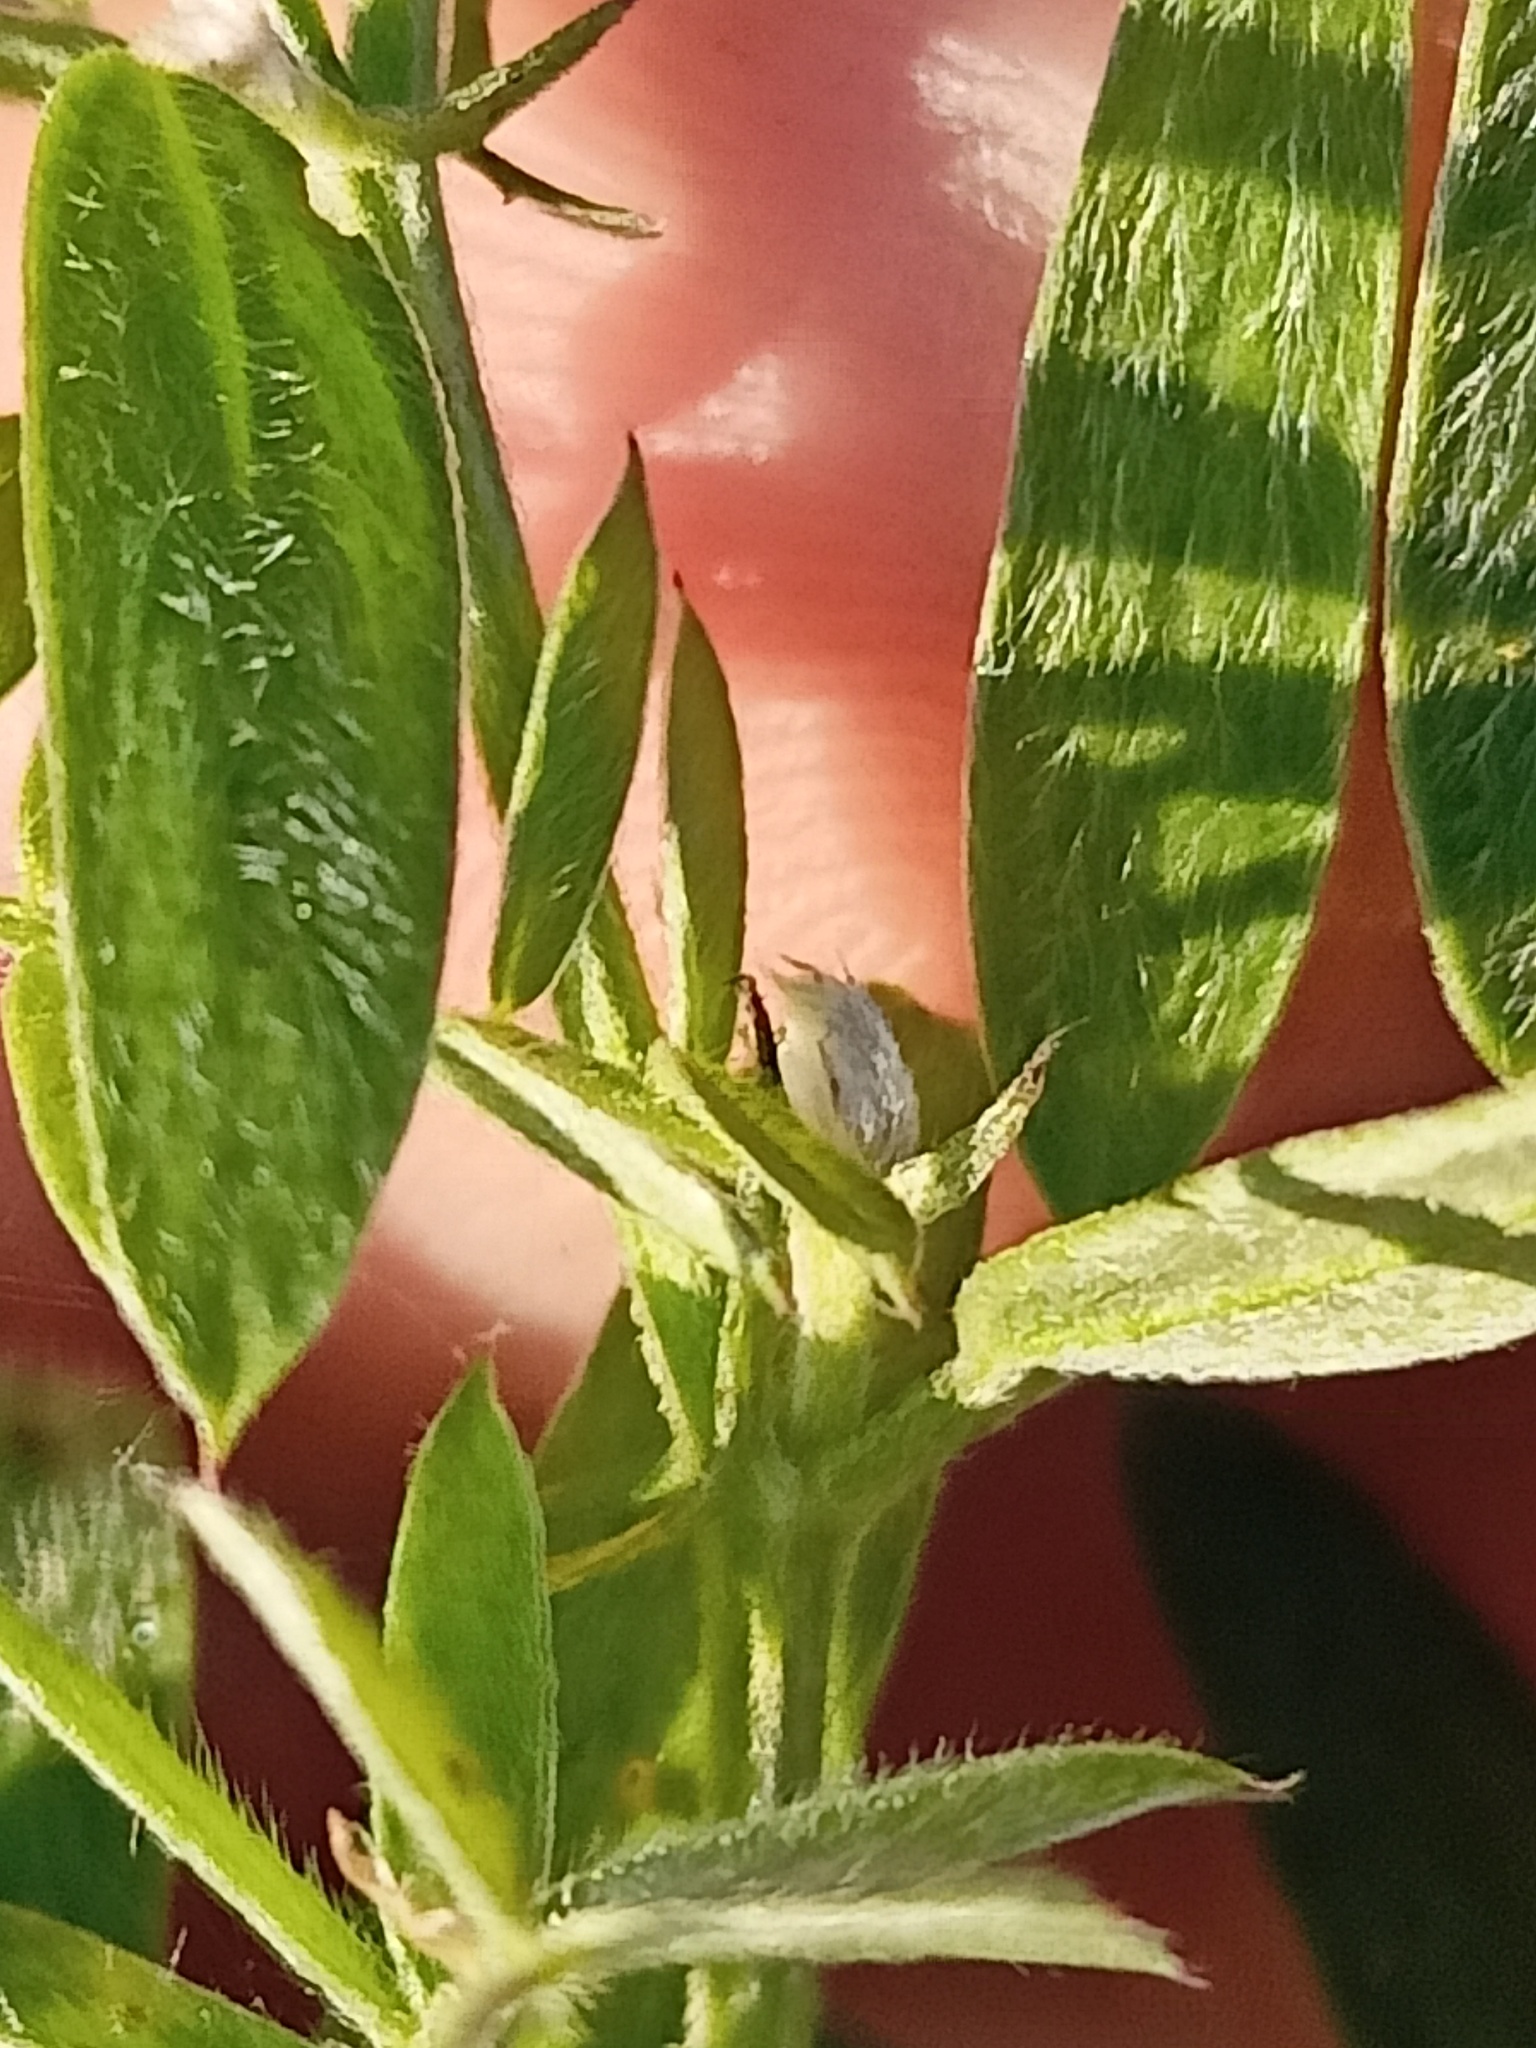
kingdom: Plantae
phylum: Tracheophyta
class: Magnoliopsida
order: Fabales
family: Fabaceae
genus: Vicia
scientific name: Vicia cracca
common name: Bird vetch
